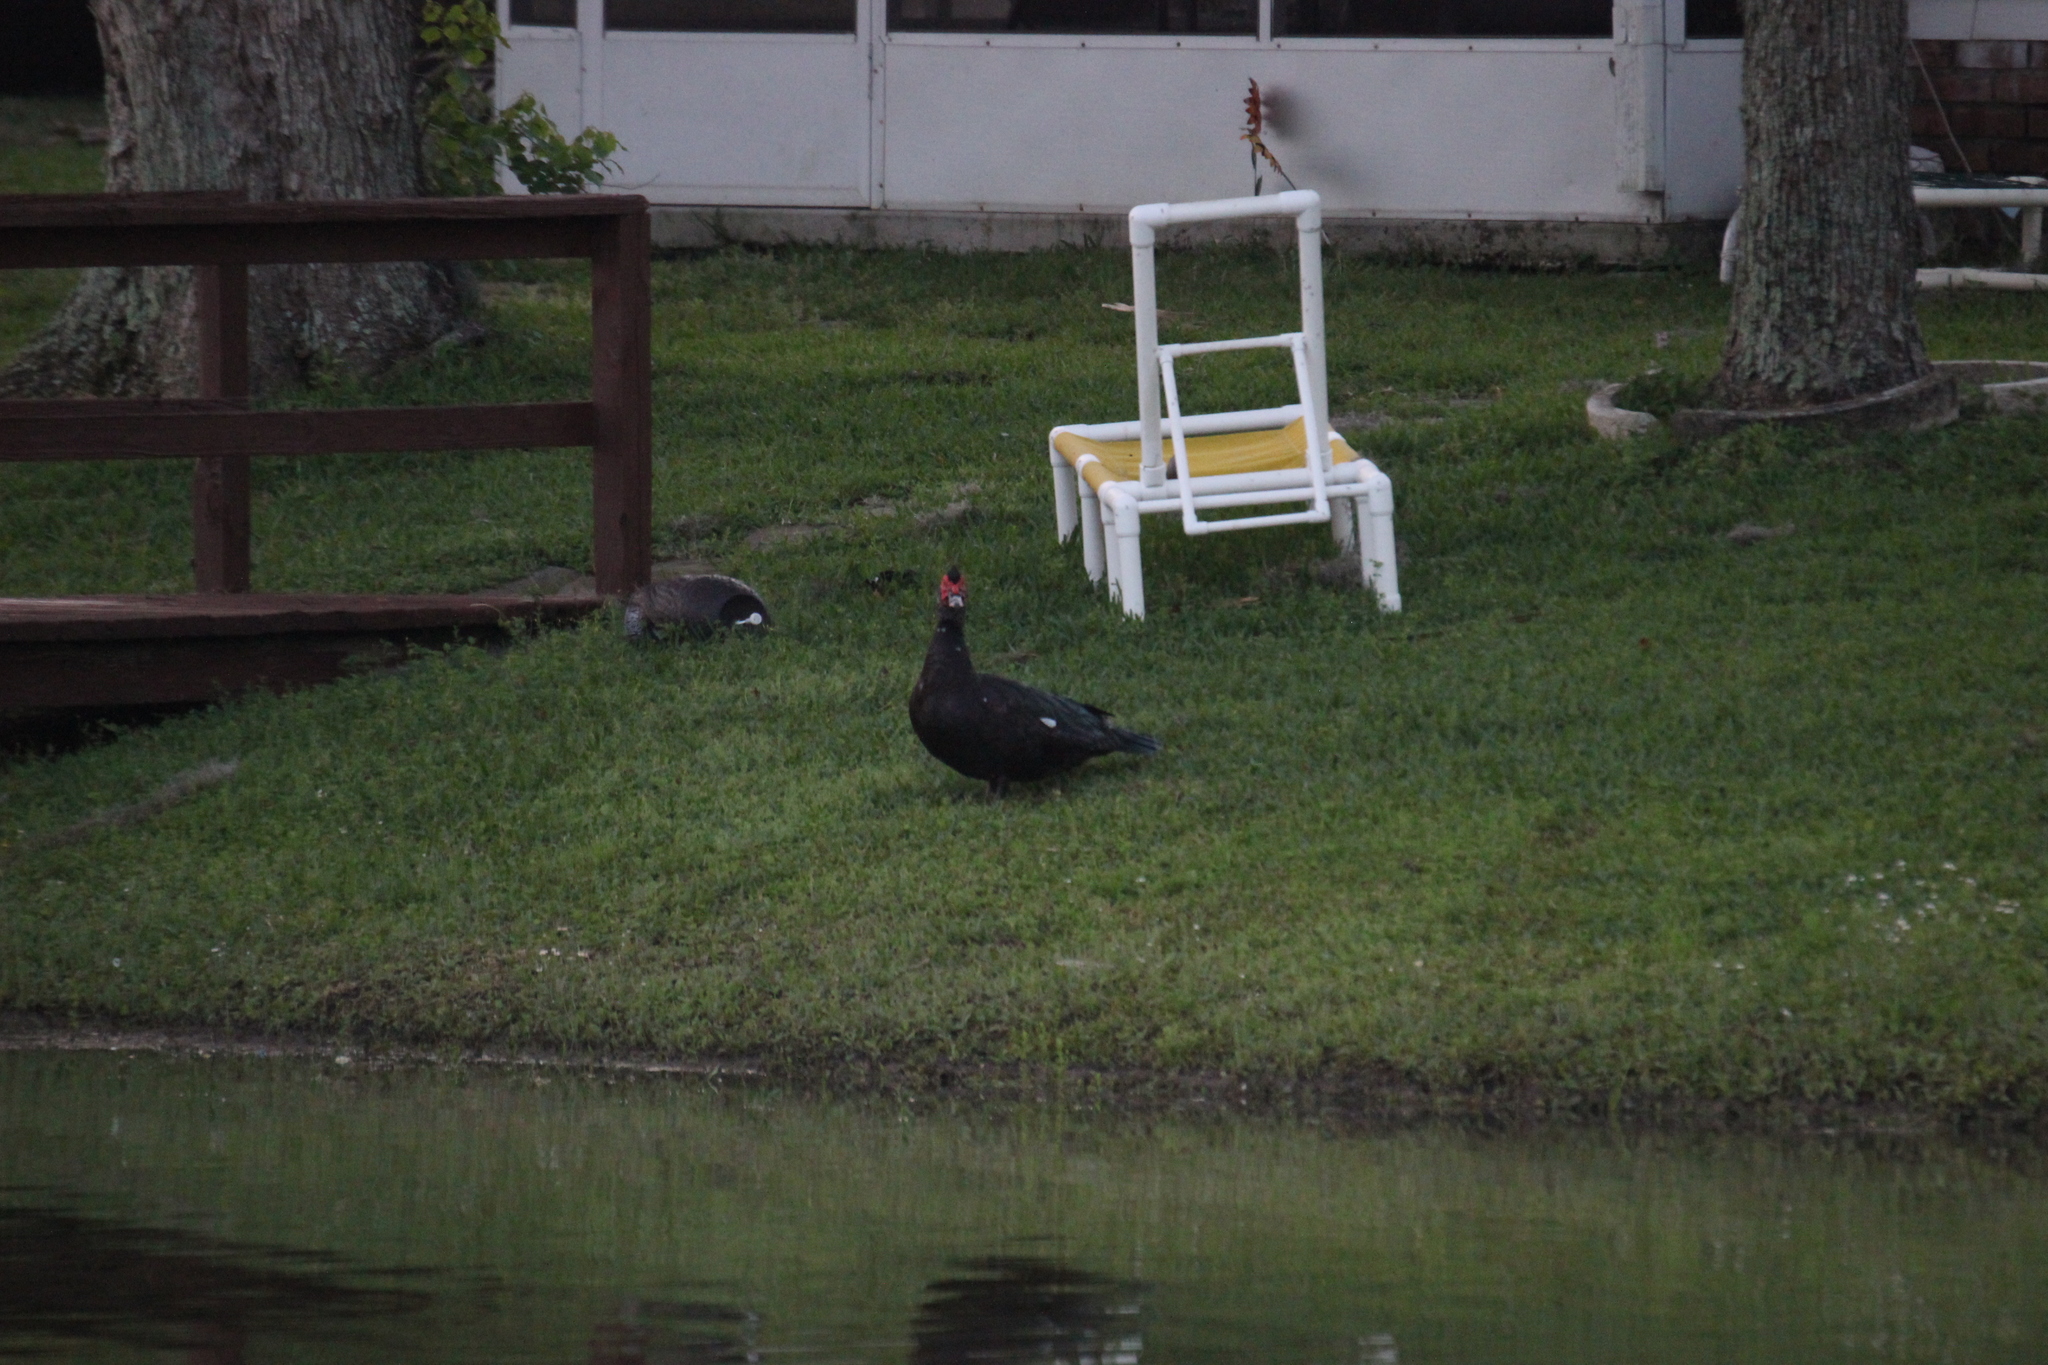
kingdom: Animalia
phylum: Chordata
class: Aves
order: Anseriformes
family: Anatidae
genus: Cairina
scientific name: Cairina moschata
